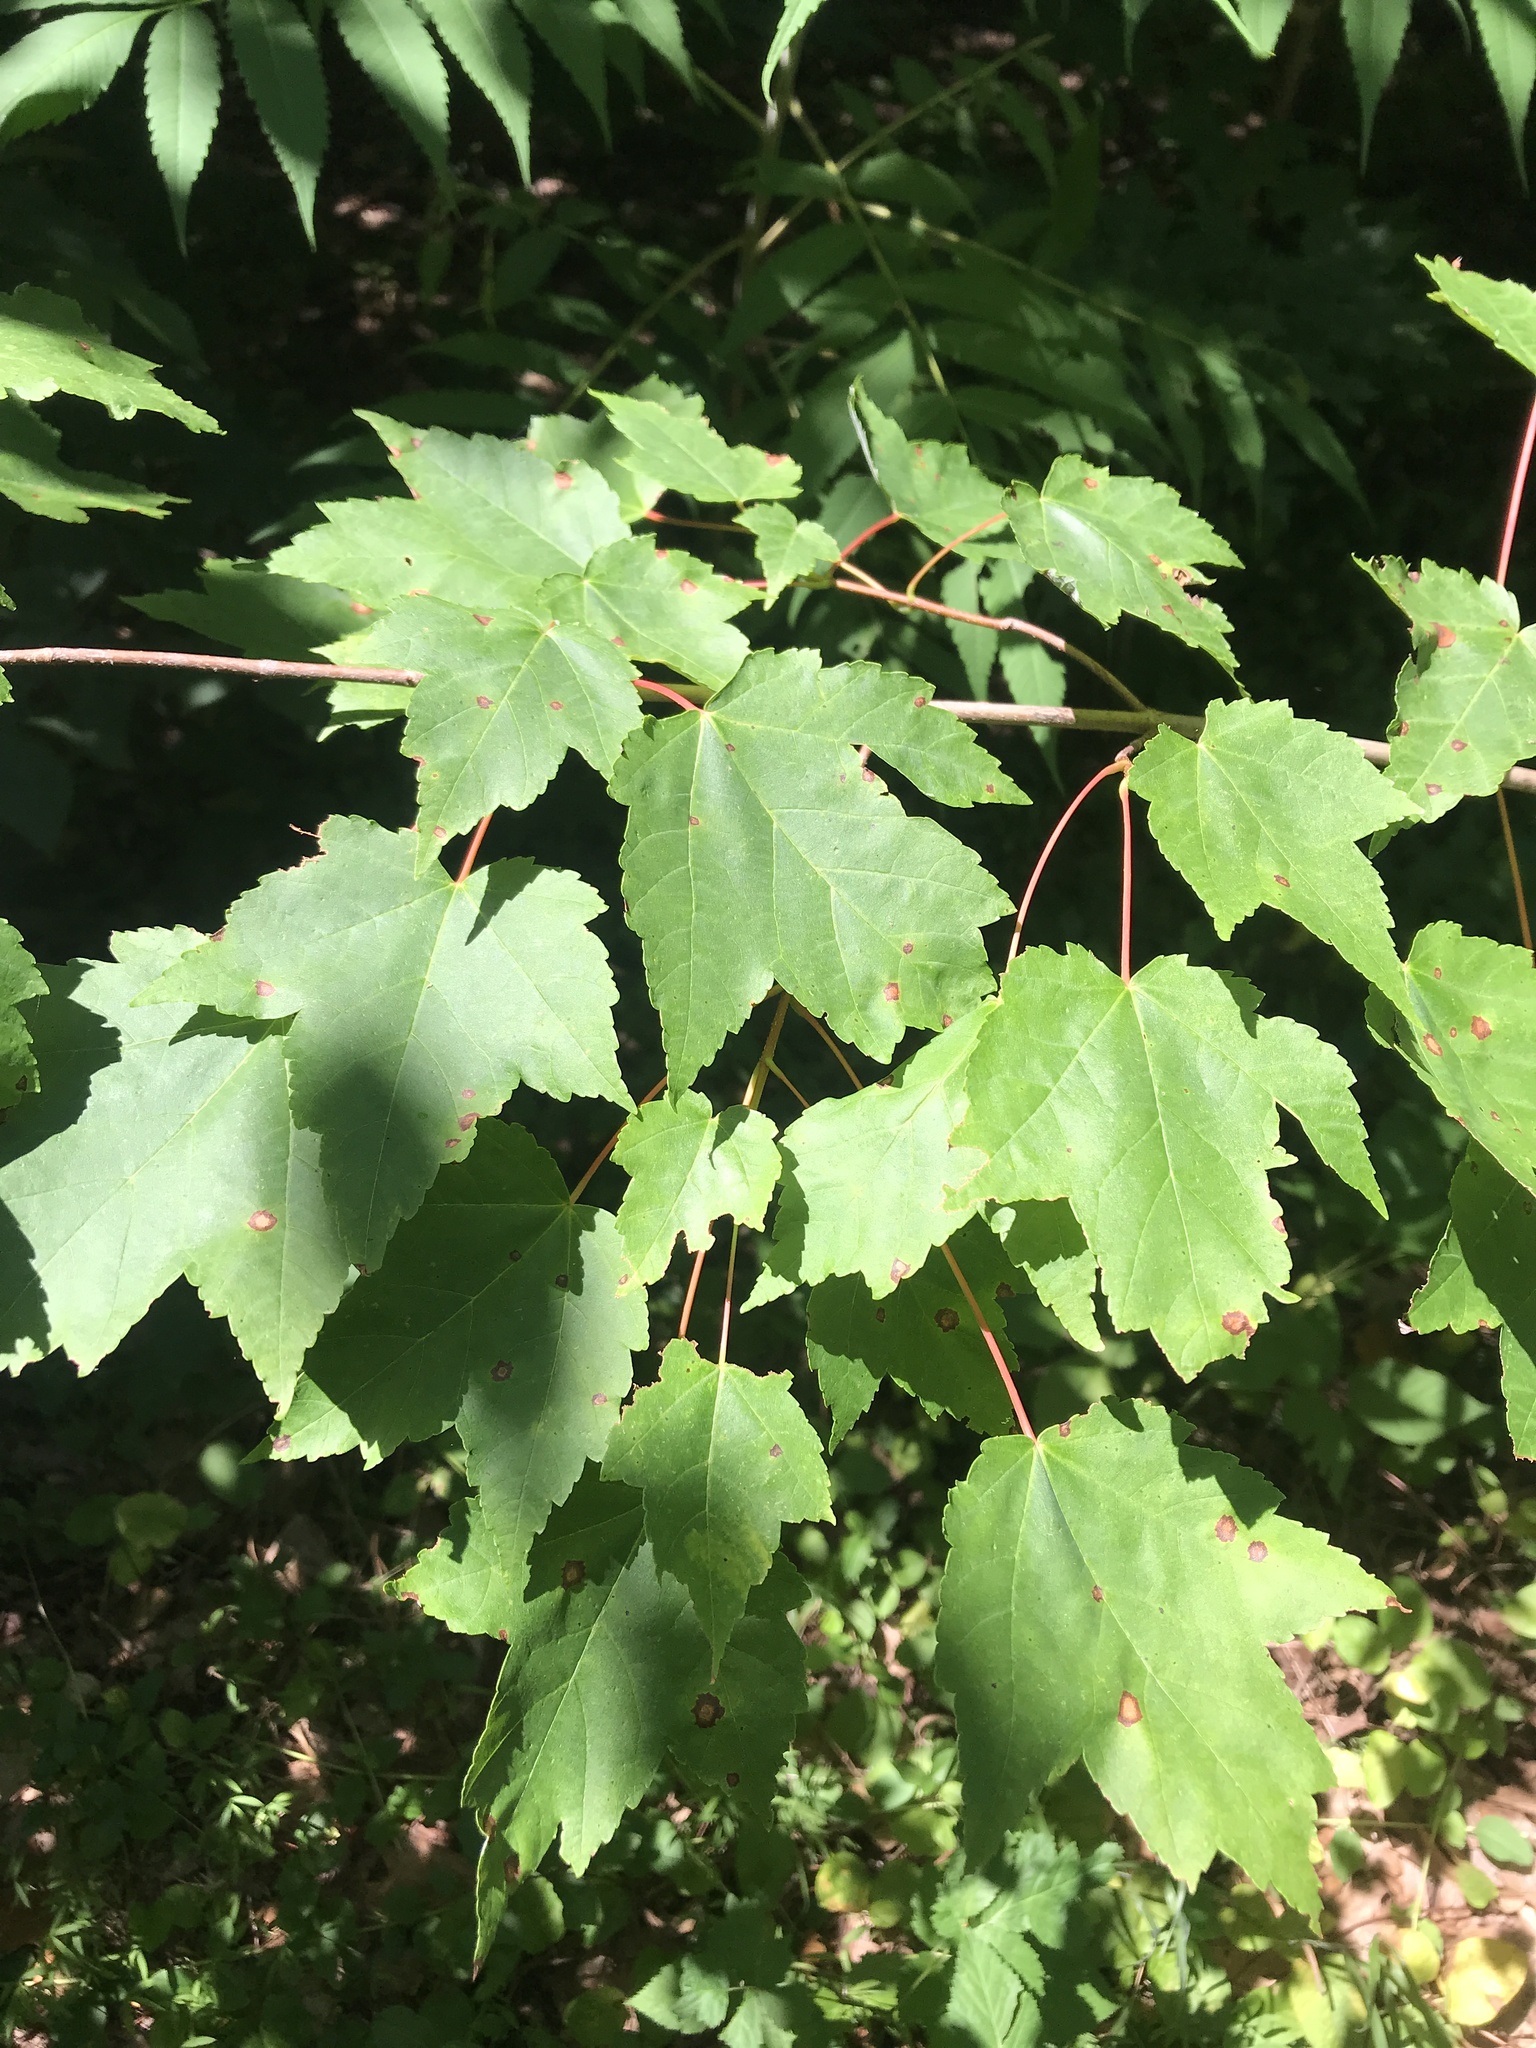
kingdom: Plantae
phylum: Tracheophyta
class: Magnoliopsida
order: Sapindales
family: Sapindaceae
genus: Acer
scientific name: Acer rubrum
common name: Red maple
